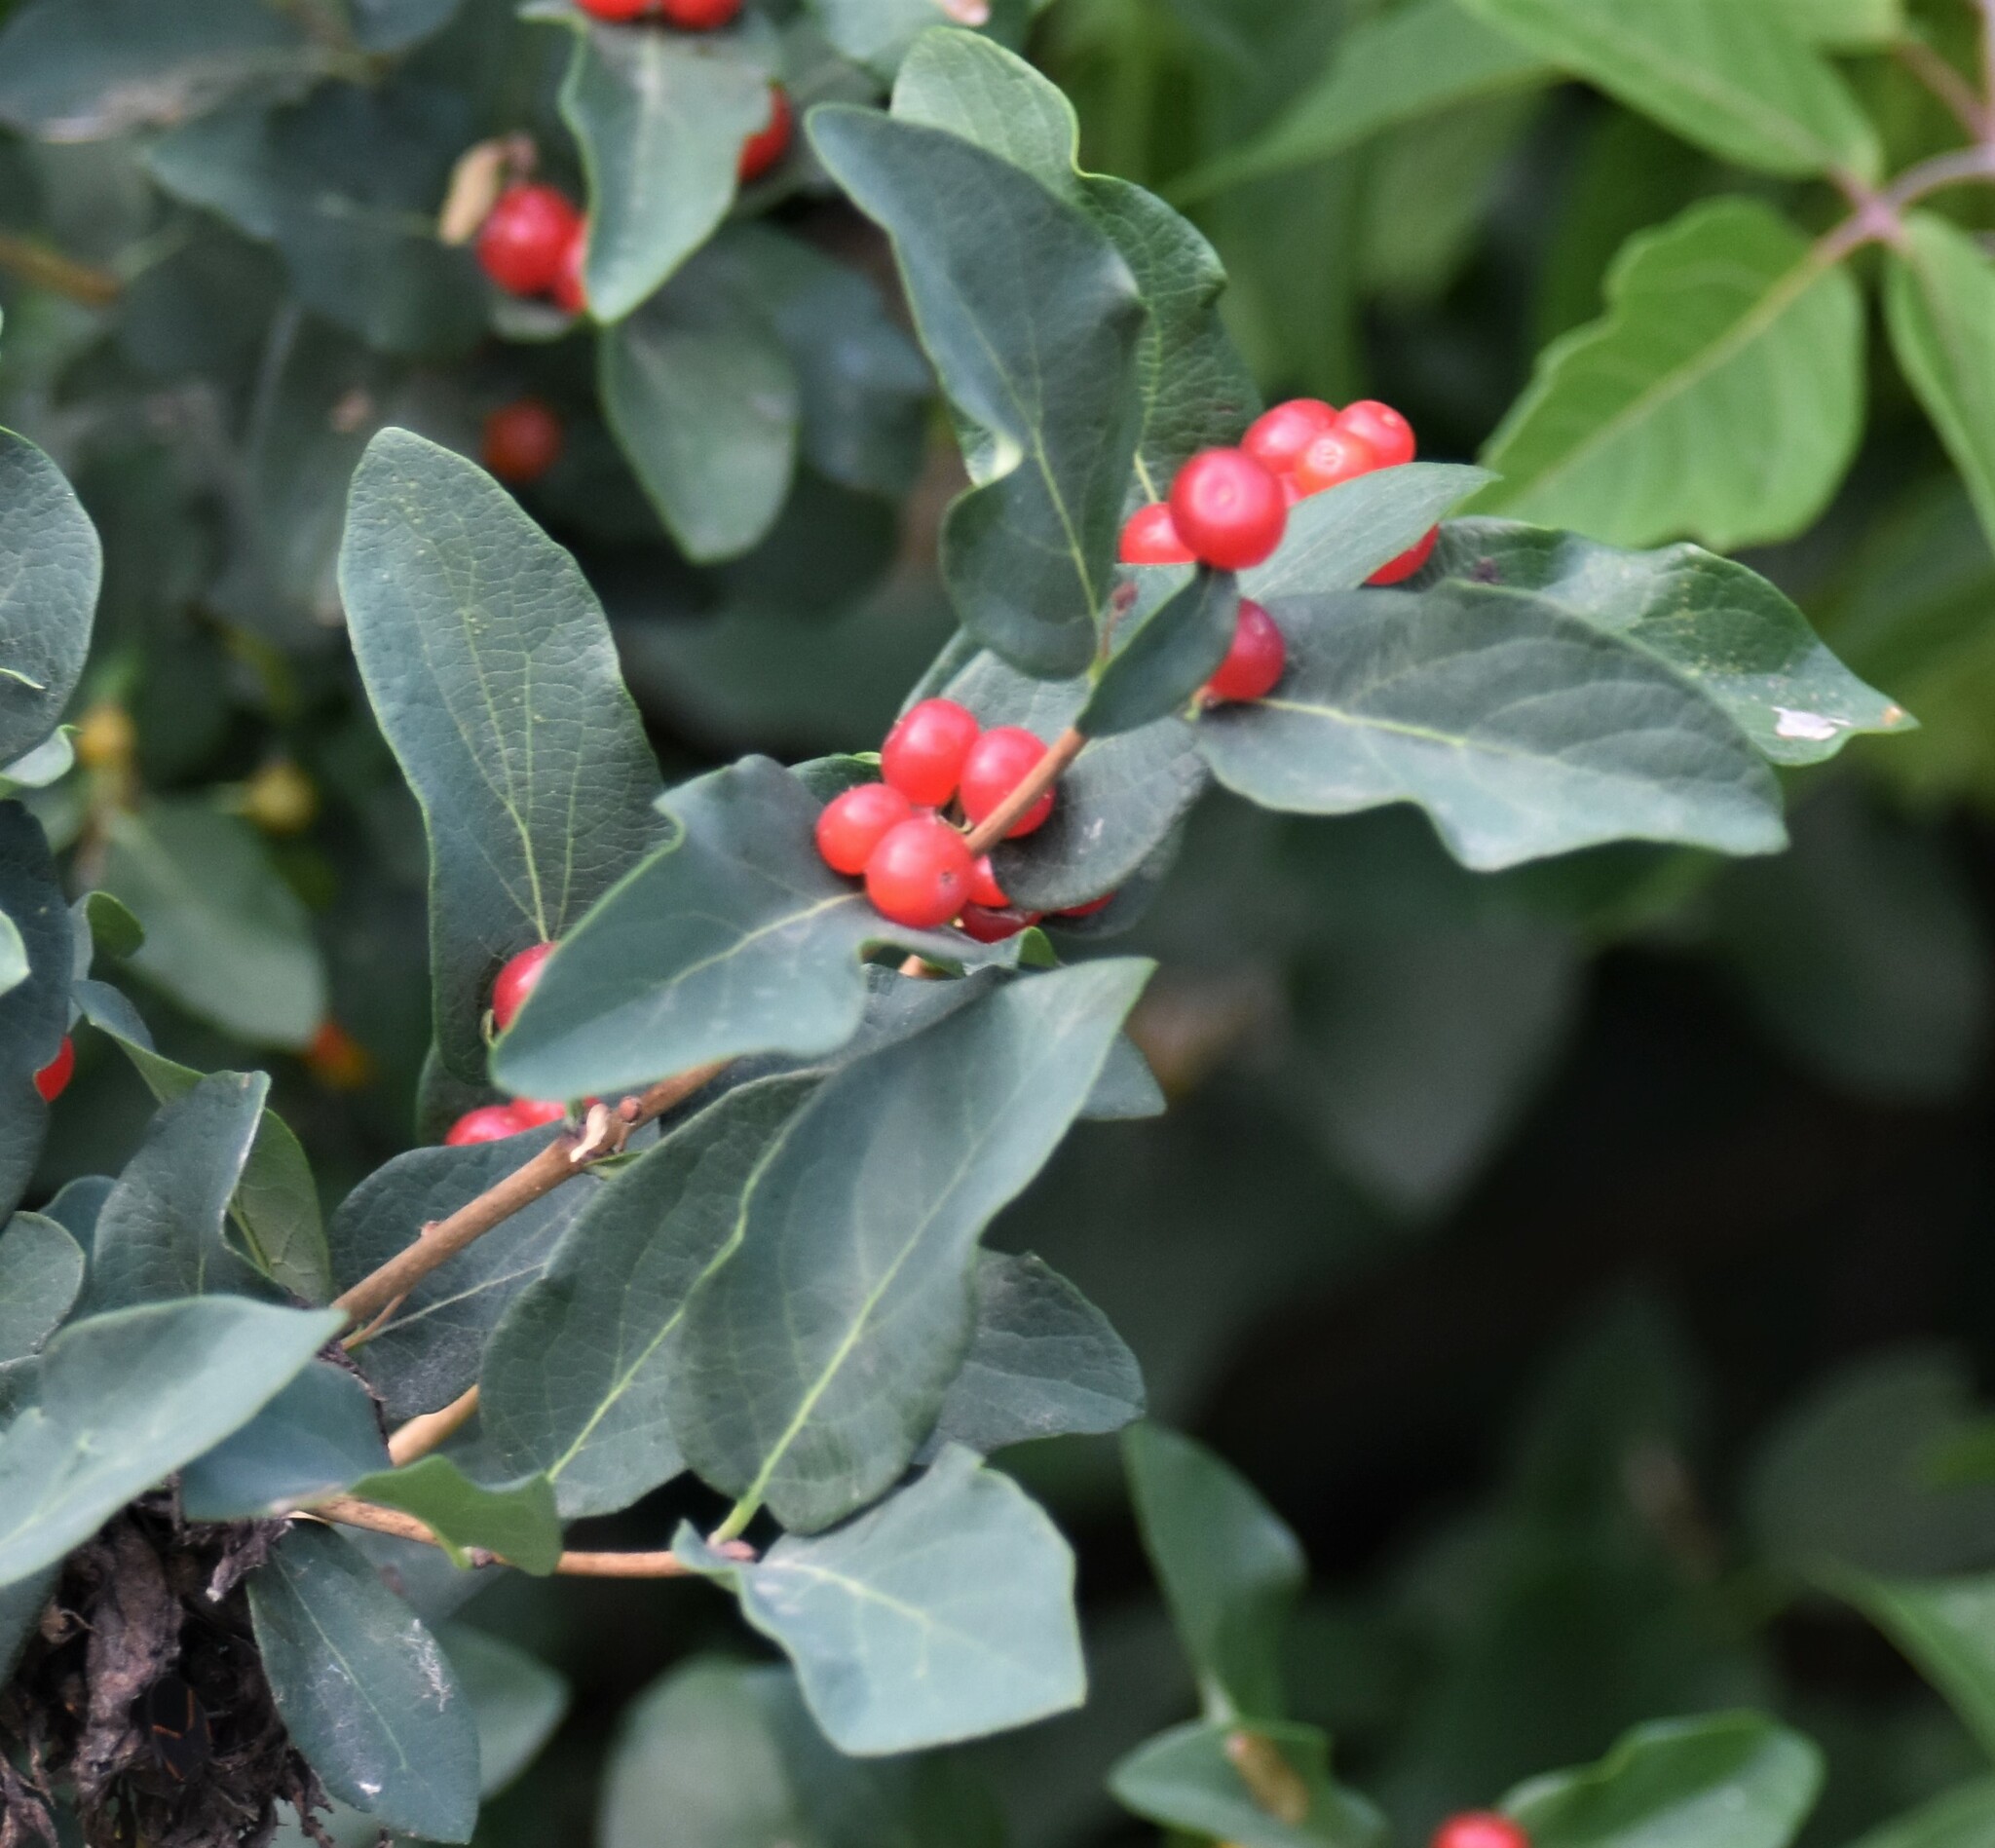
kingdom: Plantae
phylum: Tracheophyta
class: Magnoliopsida
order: Dipsacales
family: Caprifoliaceae
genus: Lonicera
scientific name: Lonicera tatarica
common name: Tatarian honeysuckle
